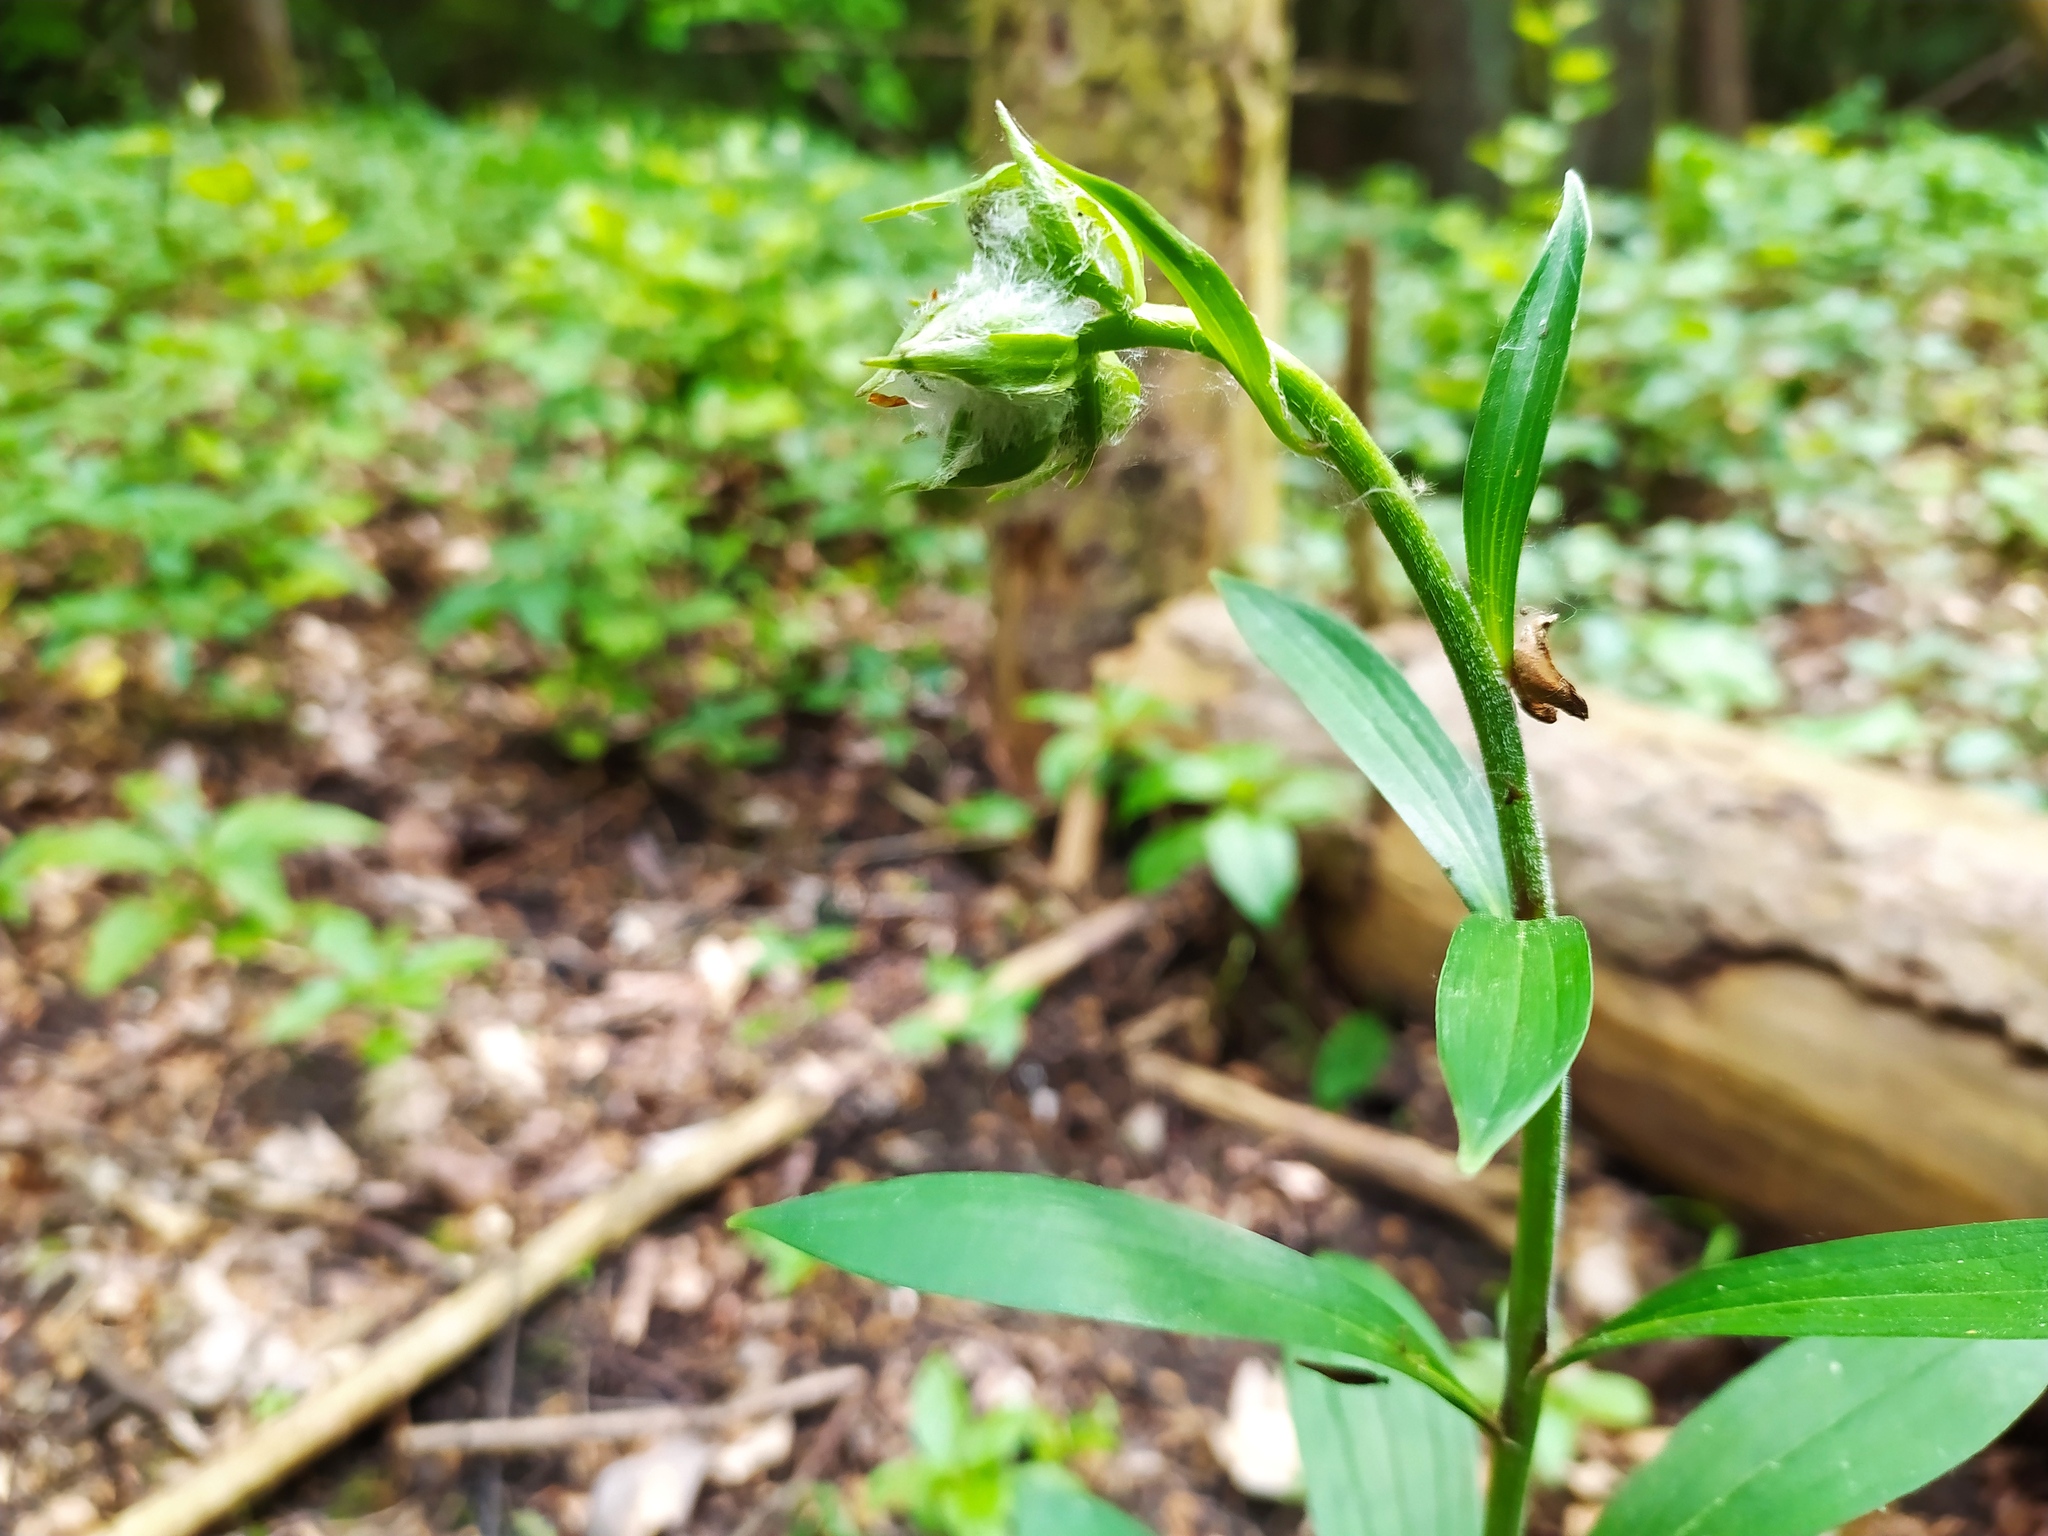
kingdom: Plantae
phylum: Tracheophyta
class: Liliopsida
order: Liliales
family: Liliaceae
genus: Lilium
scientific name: Lilium martagon
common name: Martagon lily
